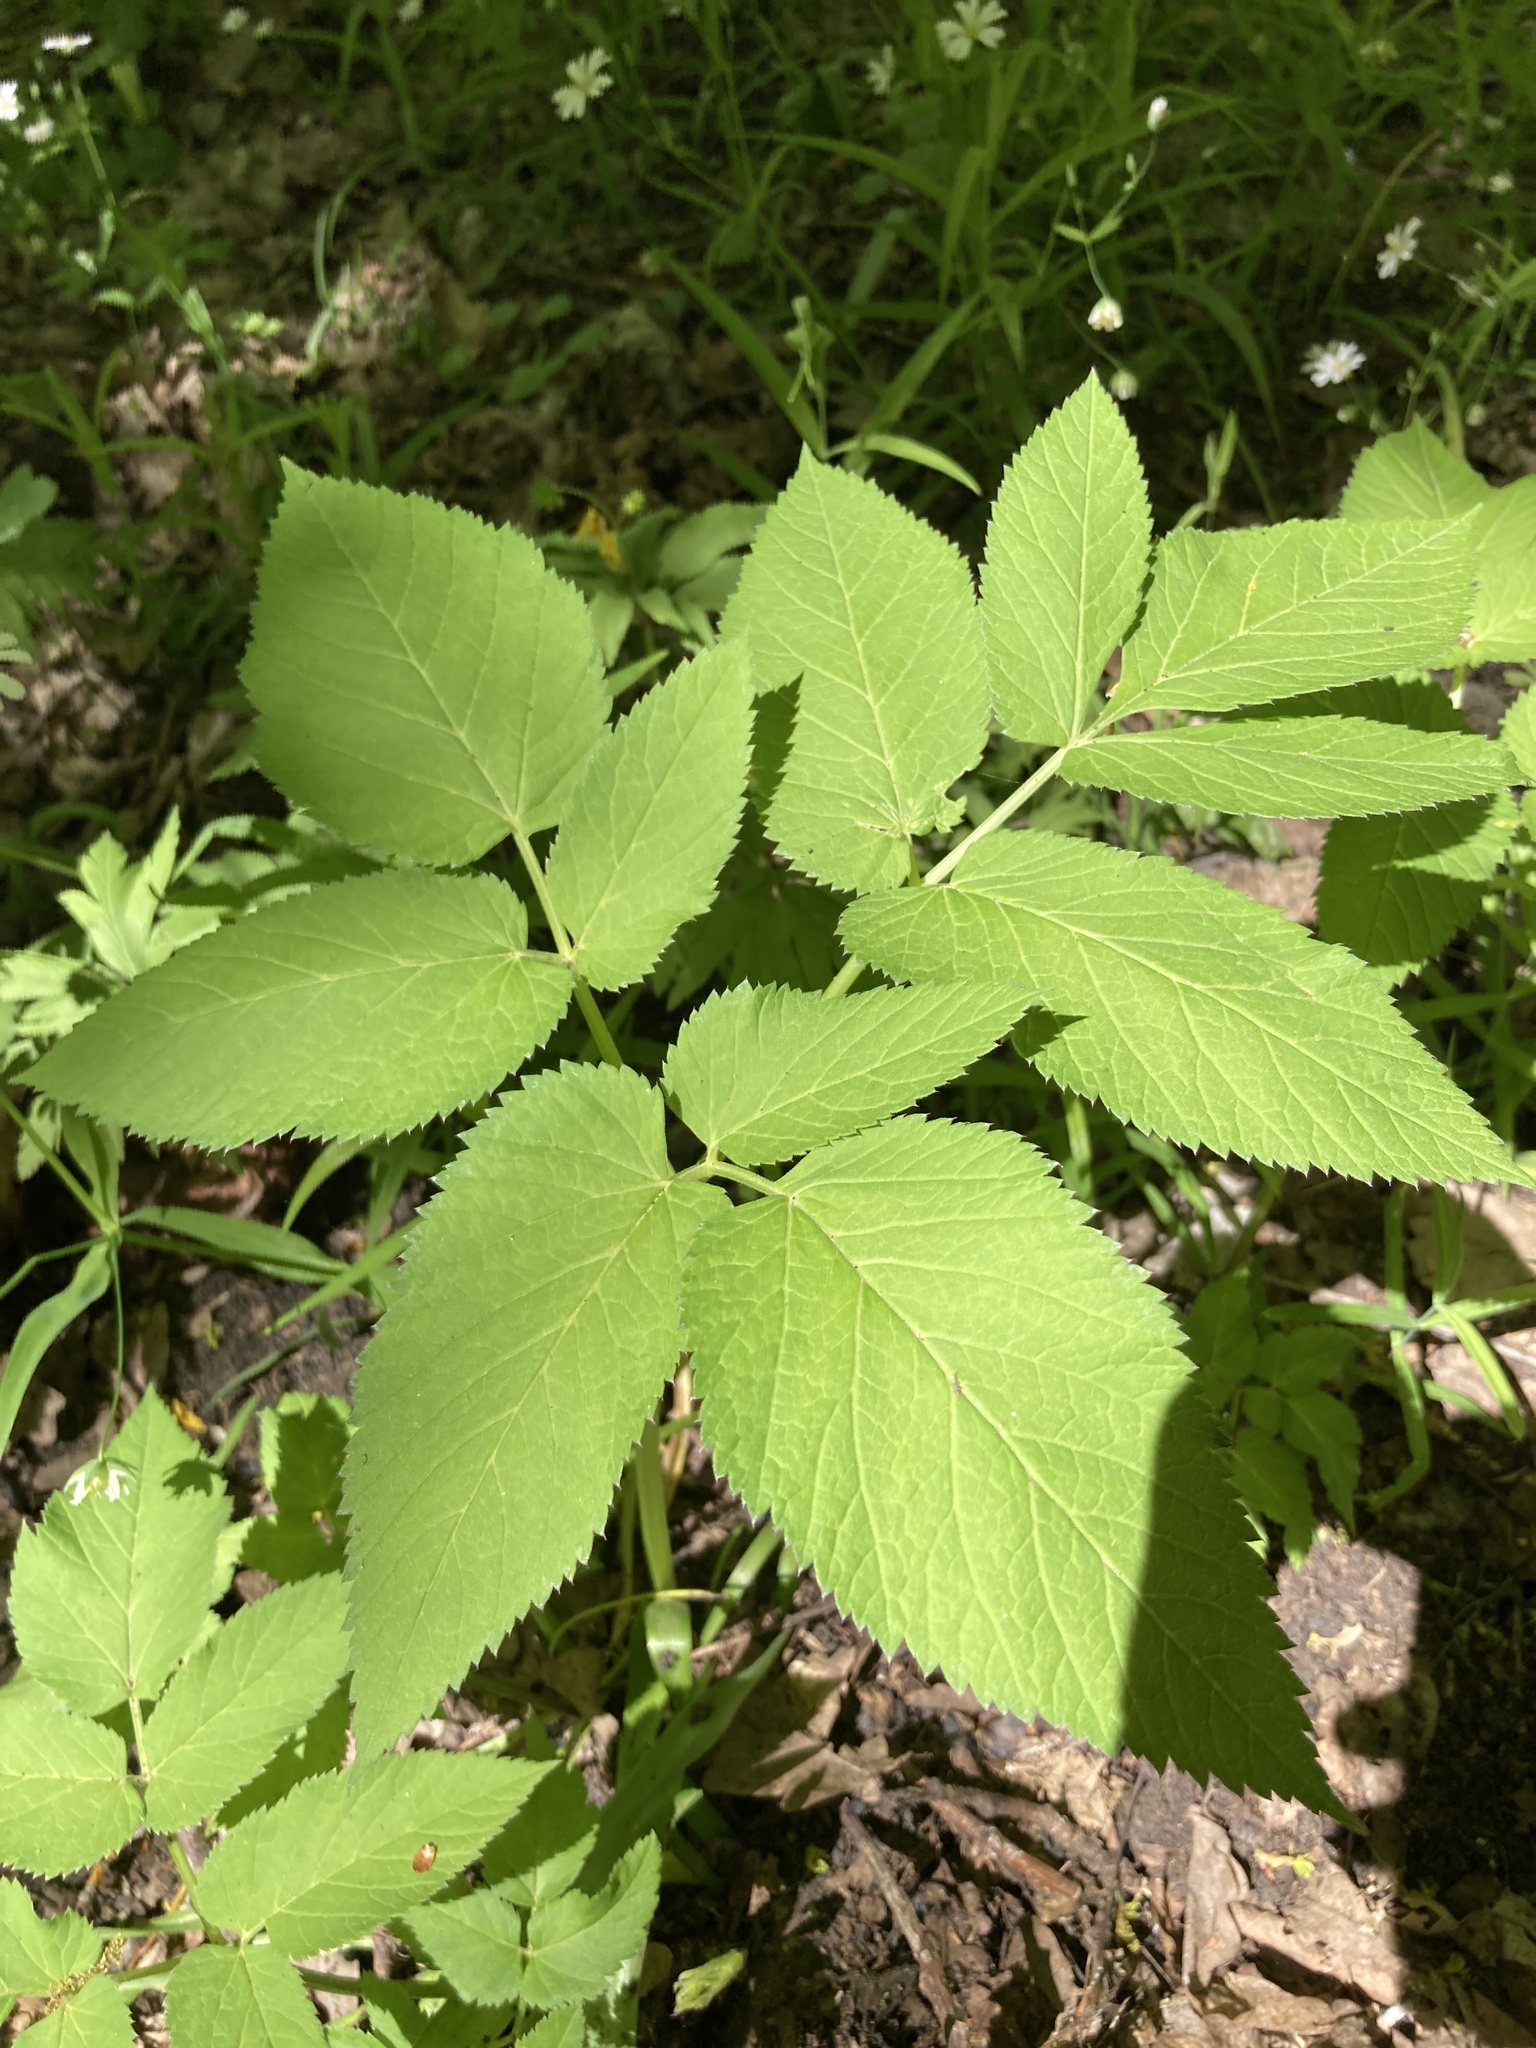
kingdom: Plantae
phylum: Tracheophyta
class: Magnoliopsida
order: Apiales
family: Apiaceae
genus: Aegopodium
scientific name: Aegopodium podagraria
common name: Ground-elder
